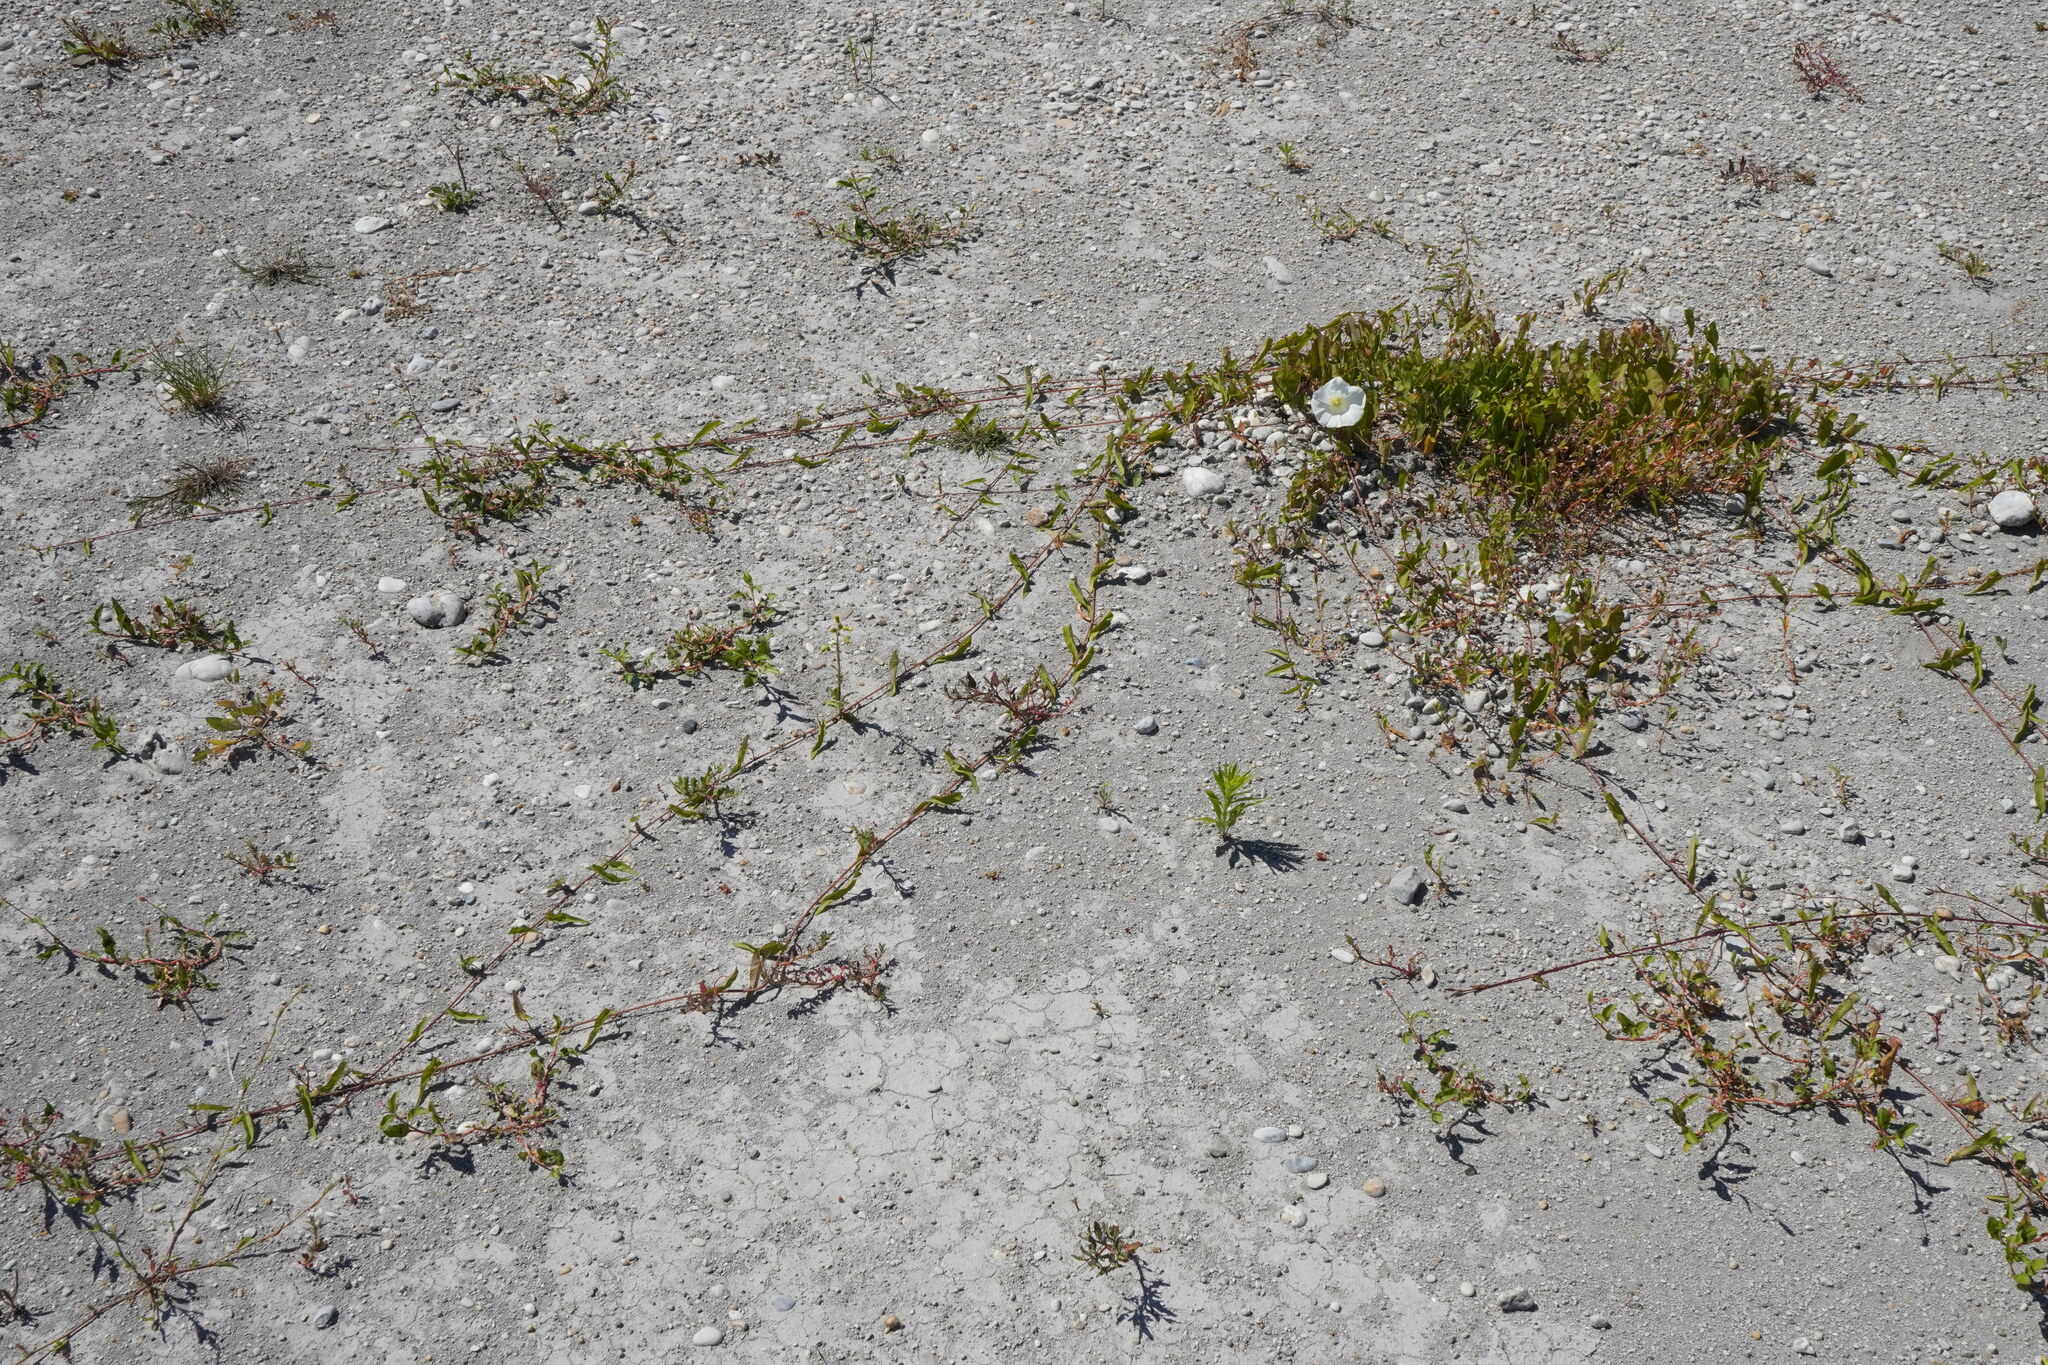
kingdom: Plantae
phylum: Tracheophyta
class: Magnoliopsida
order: Solanales
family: Convolvulaceae
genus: Calystegia
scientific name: Calystegia sepium
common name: Hedge bindweed
